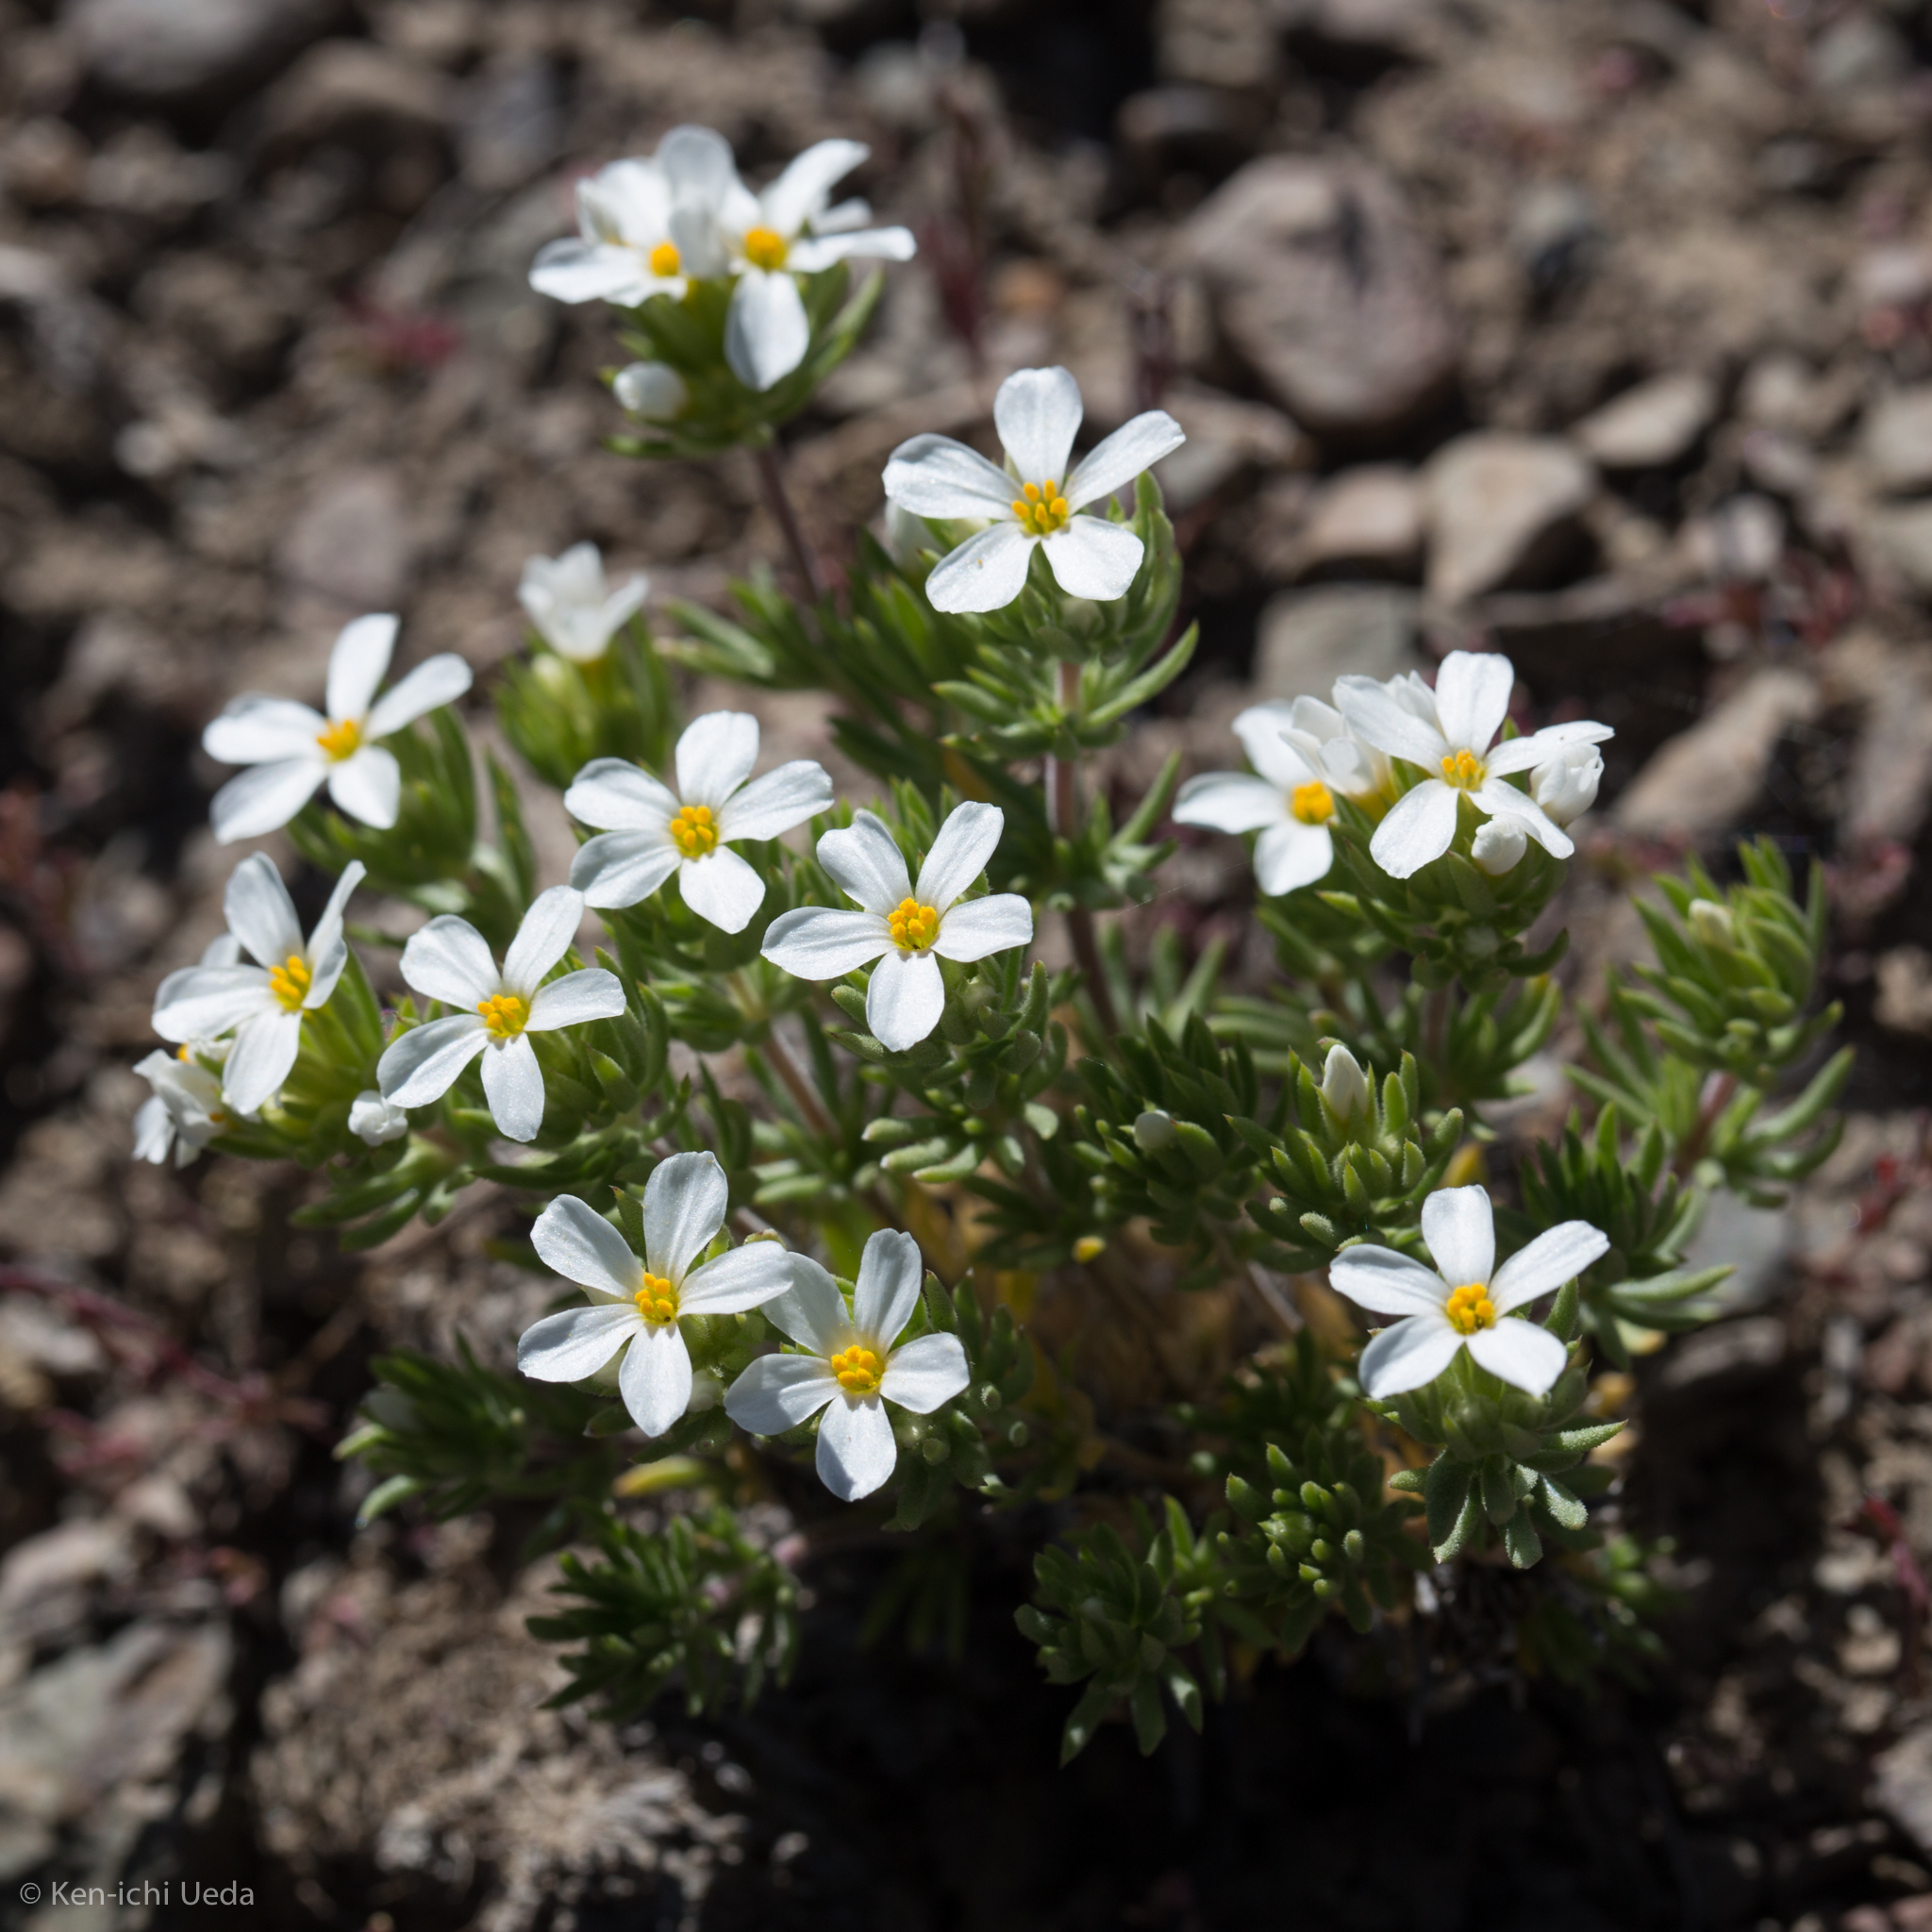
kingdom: Plantae
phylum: Tracheophyta
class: Magnoliopsida
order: Ericales
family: Polemoniaceae
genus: Leptosiphon
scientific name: Leptosiphon nuttallii
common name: Nuttall's linanthus
